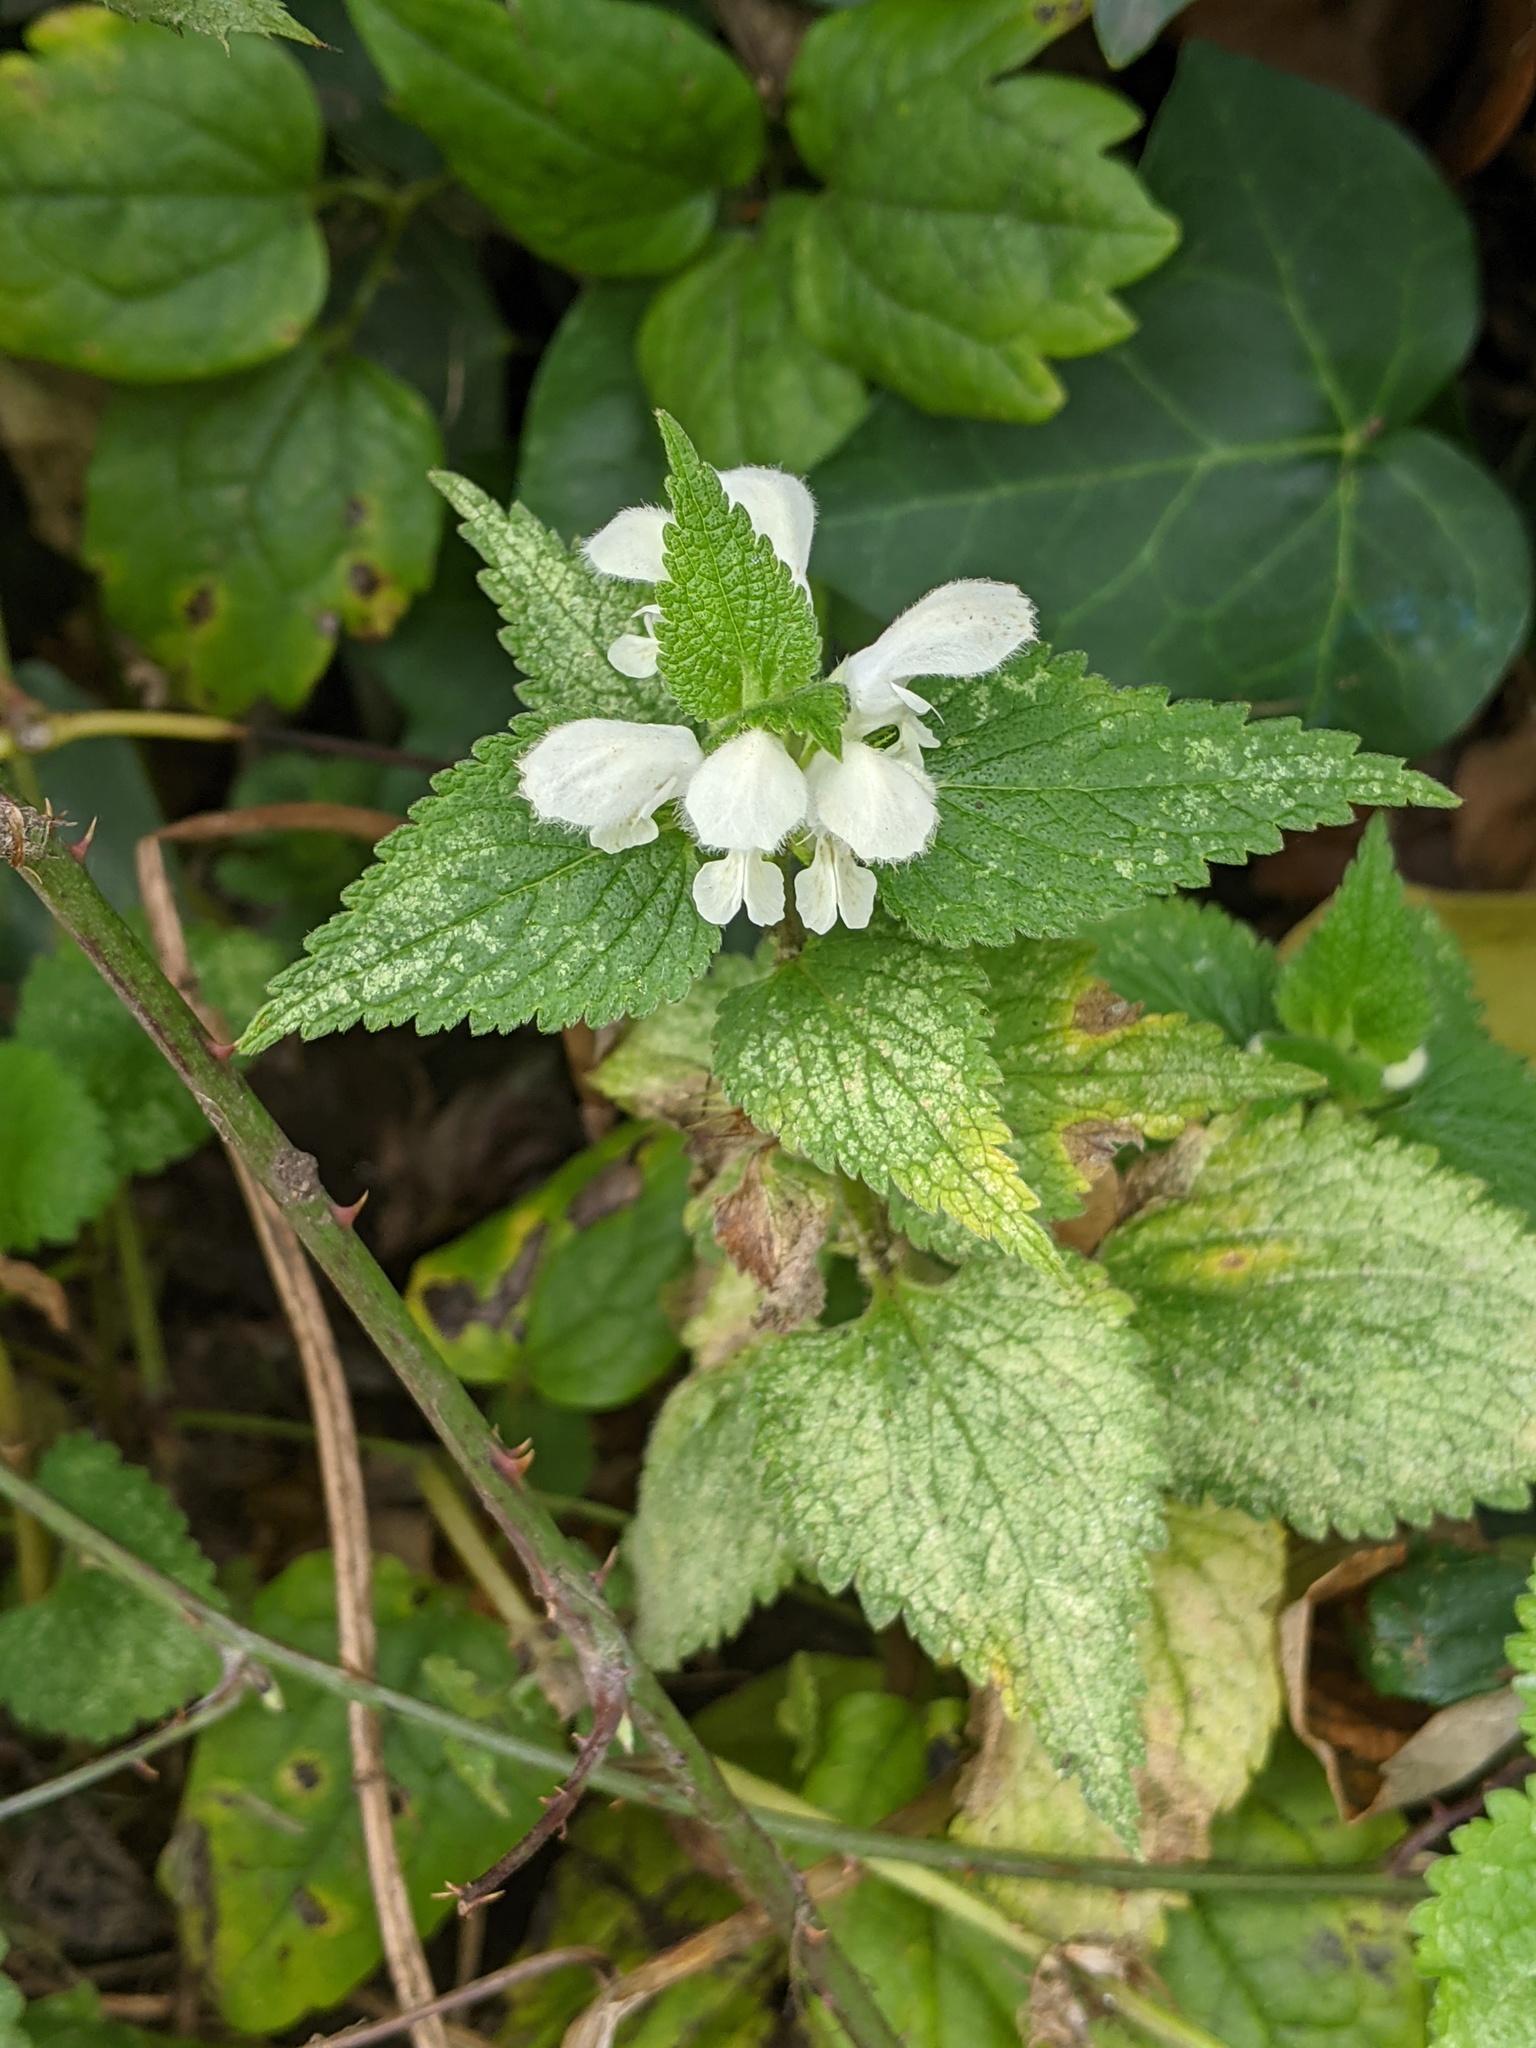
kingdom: Plantae
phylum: Tracheophyta
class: Magnoliopsida
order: Lamiales
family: Lamiaceae
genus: Lamium
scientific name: Lamium album
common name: White dead-nettle
